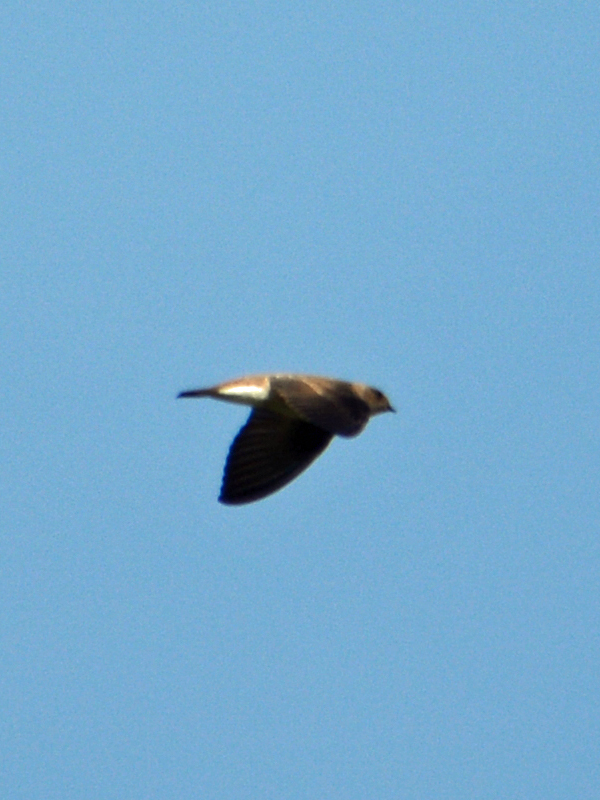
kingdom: Animalia
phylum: Chordata
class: Aves
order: Passeriformes
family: Hirundinidae
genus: Stelgidopteryx
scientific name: Stelgidopteryx serripennis
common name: Northern rough-winged swallow
